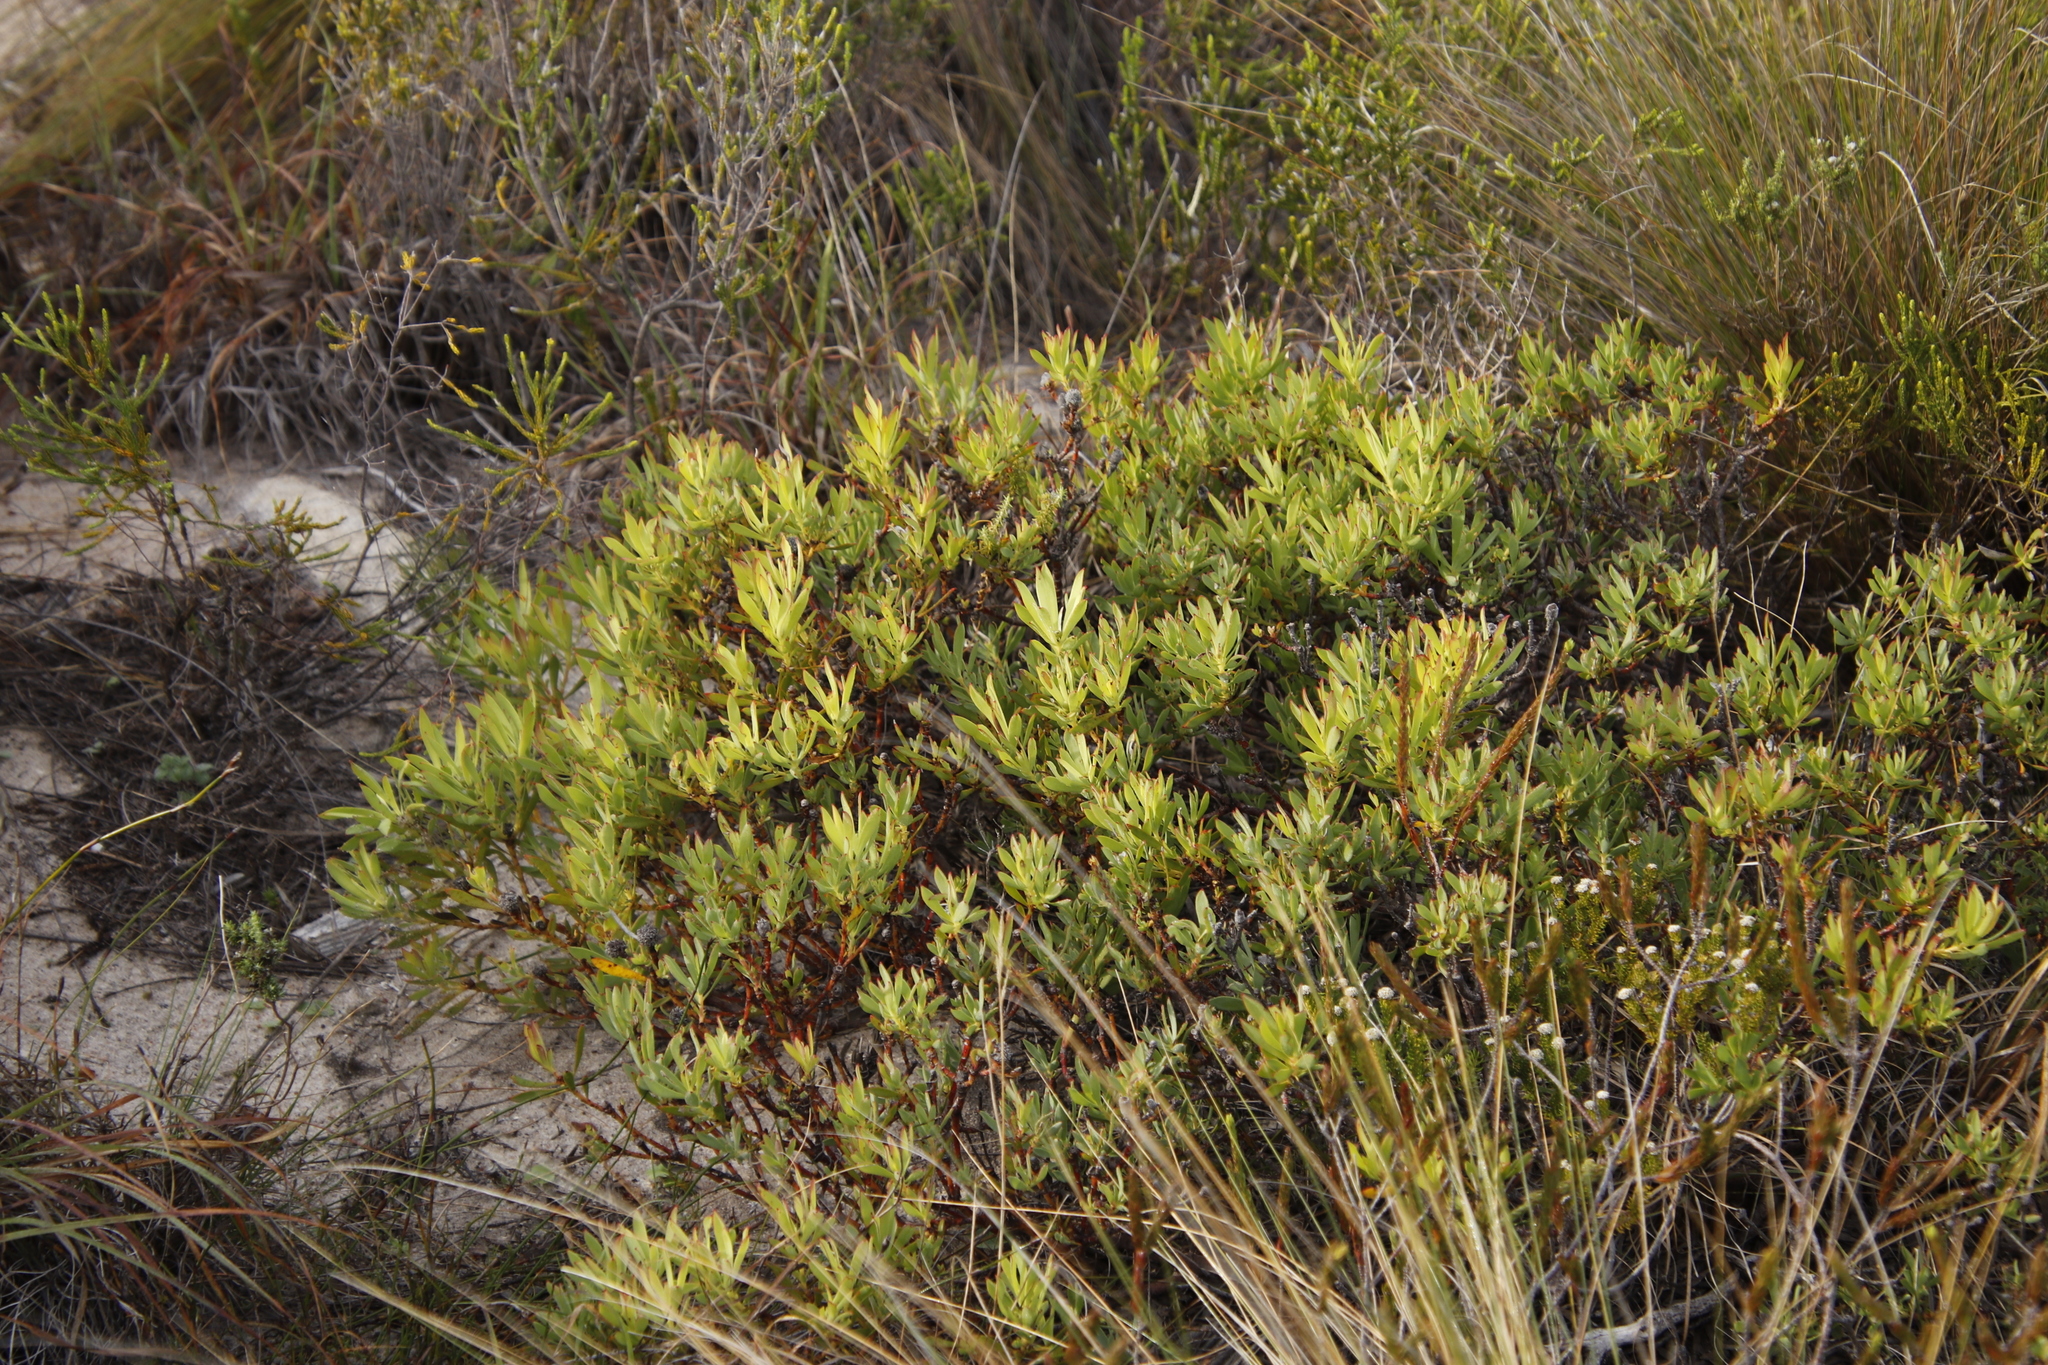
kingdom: Plantae
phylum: Tracheophyta
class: Magnoliopsida
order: Proteales
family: Proteaceae
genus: Leucadendron
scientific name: Leucadendron salignum
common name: Common sunshine conebush
